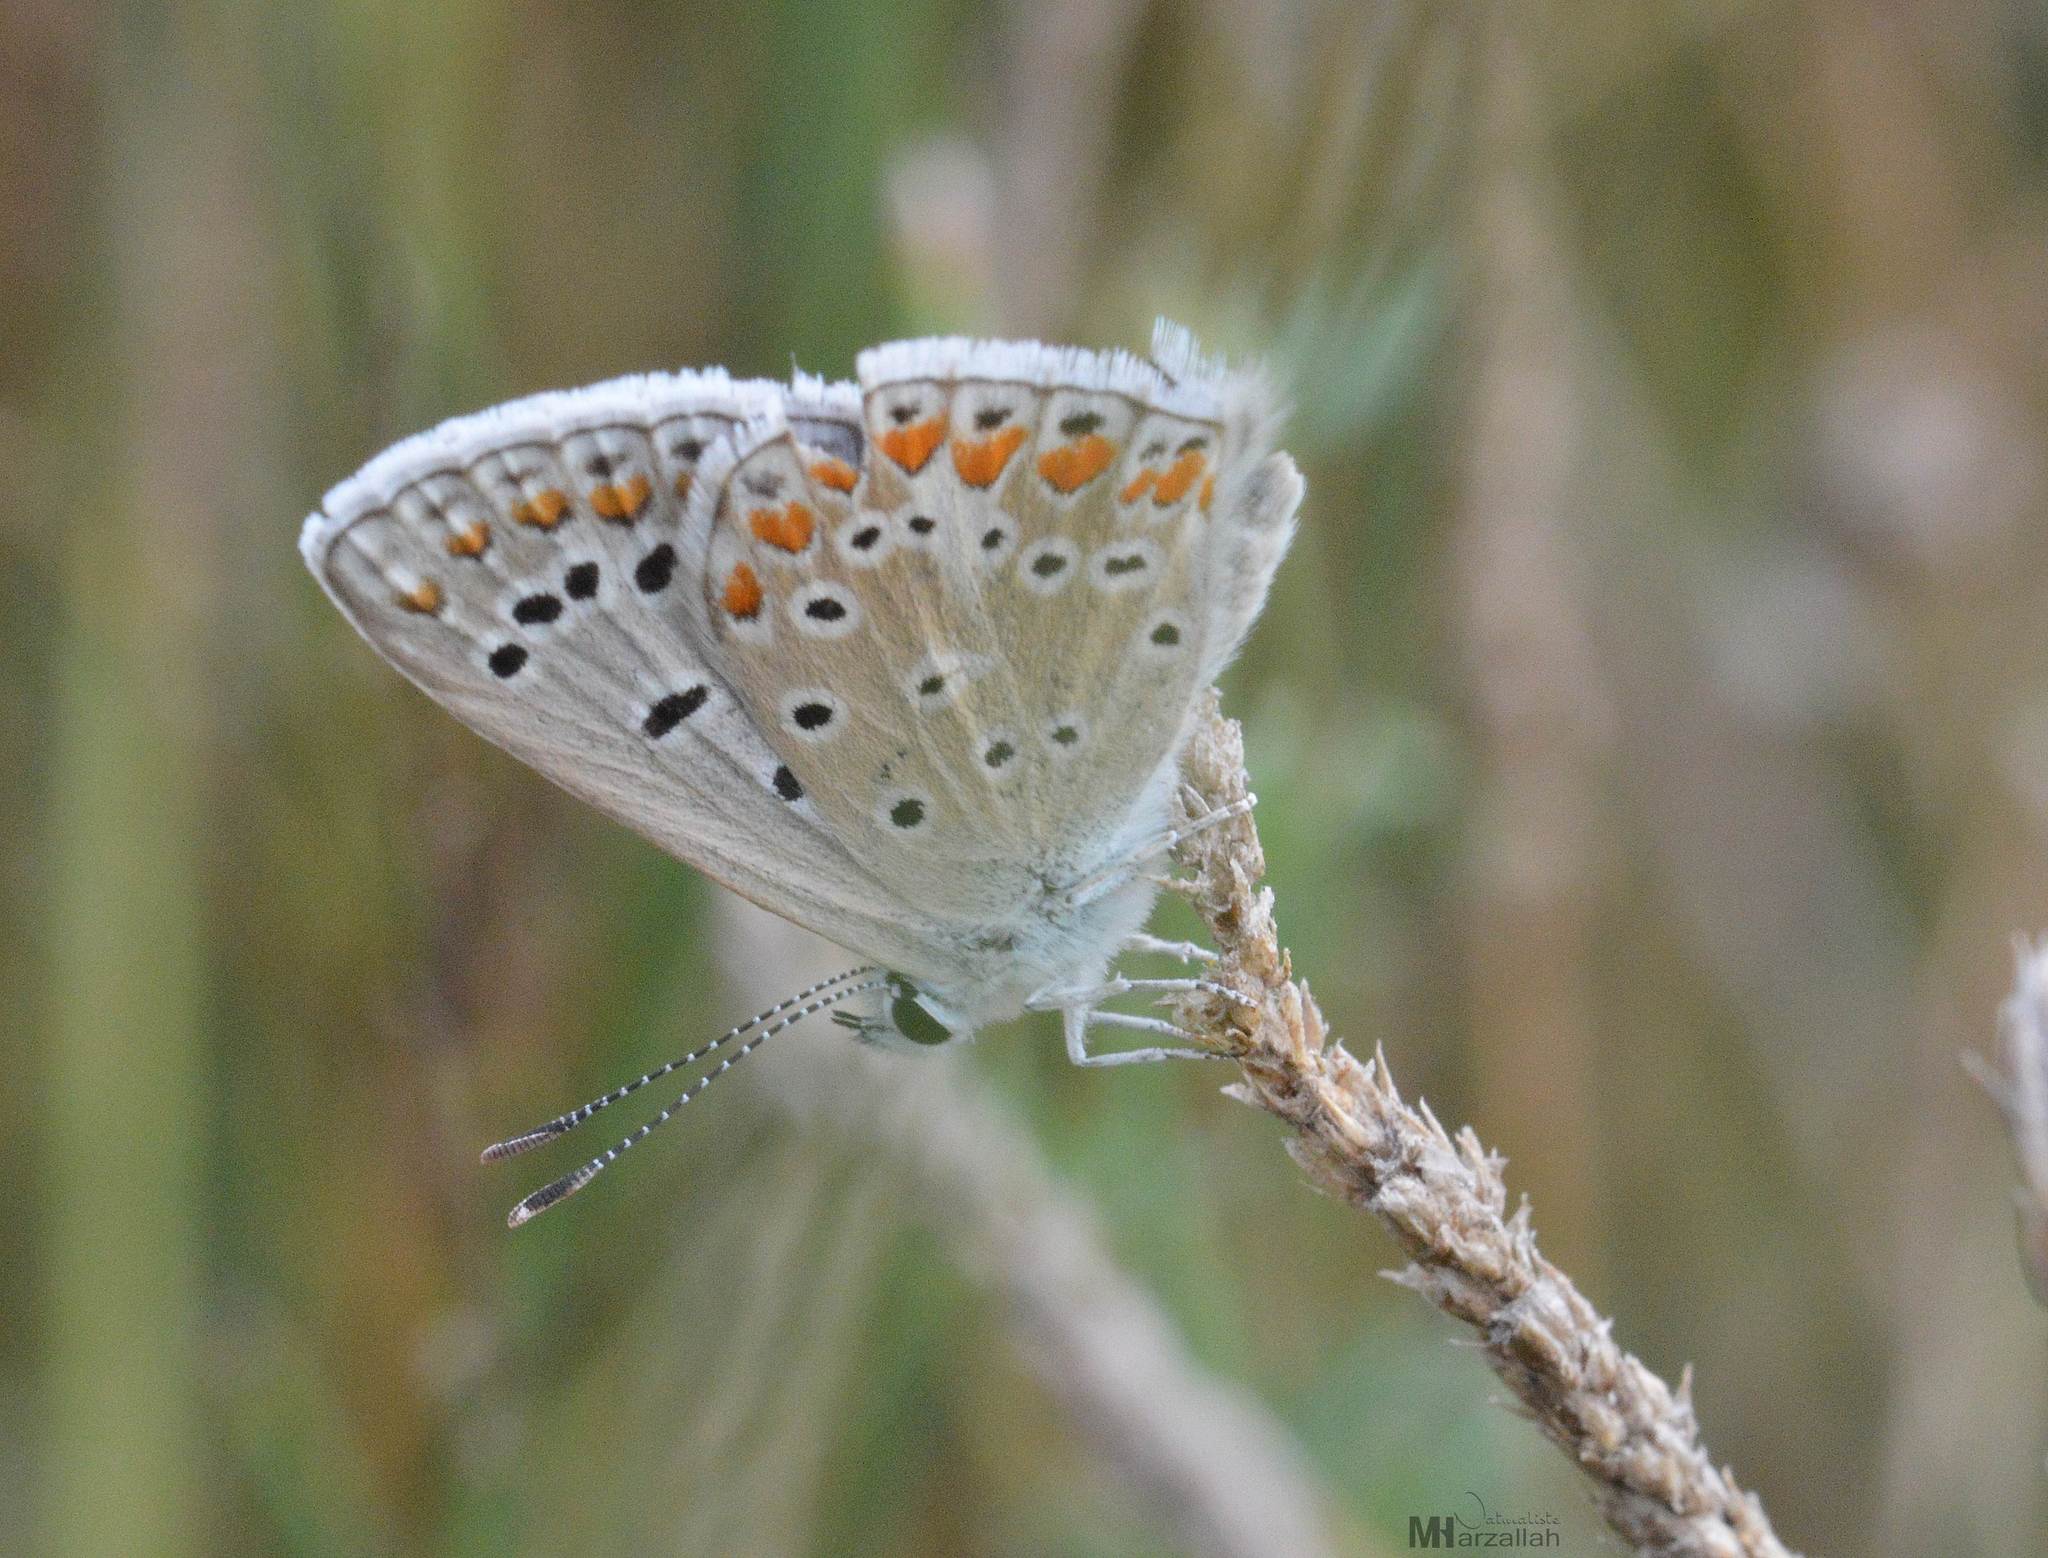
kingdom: Animalia
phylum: Arthropoda
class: Insecta
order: Lepidoptera
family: Lycaenidae
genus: Polyommatus
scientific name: Polyommatus celina
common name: Austaut's blue
